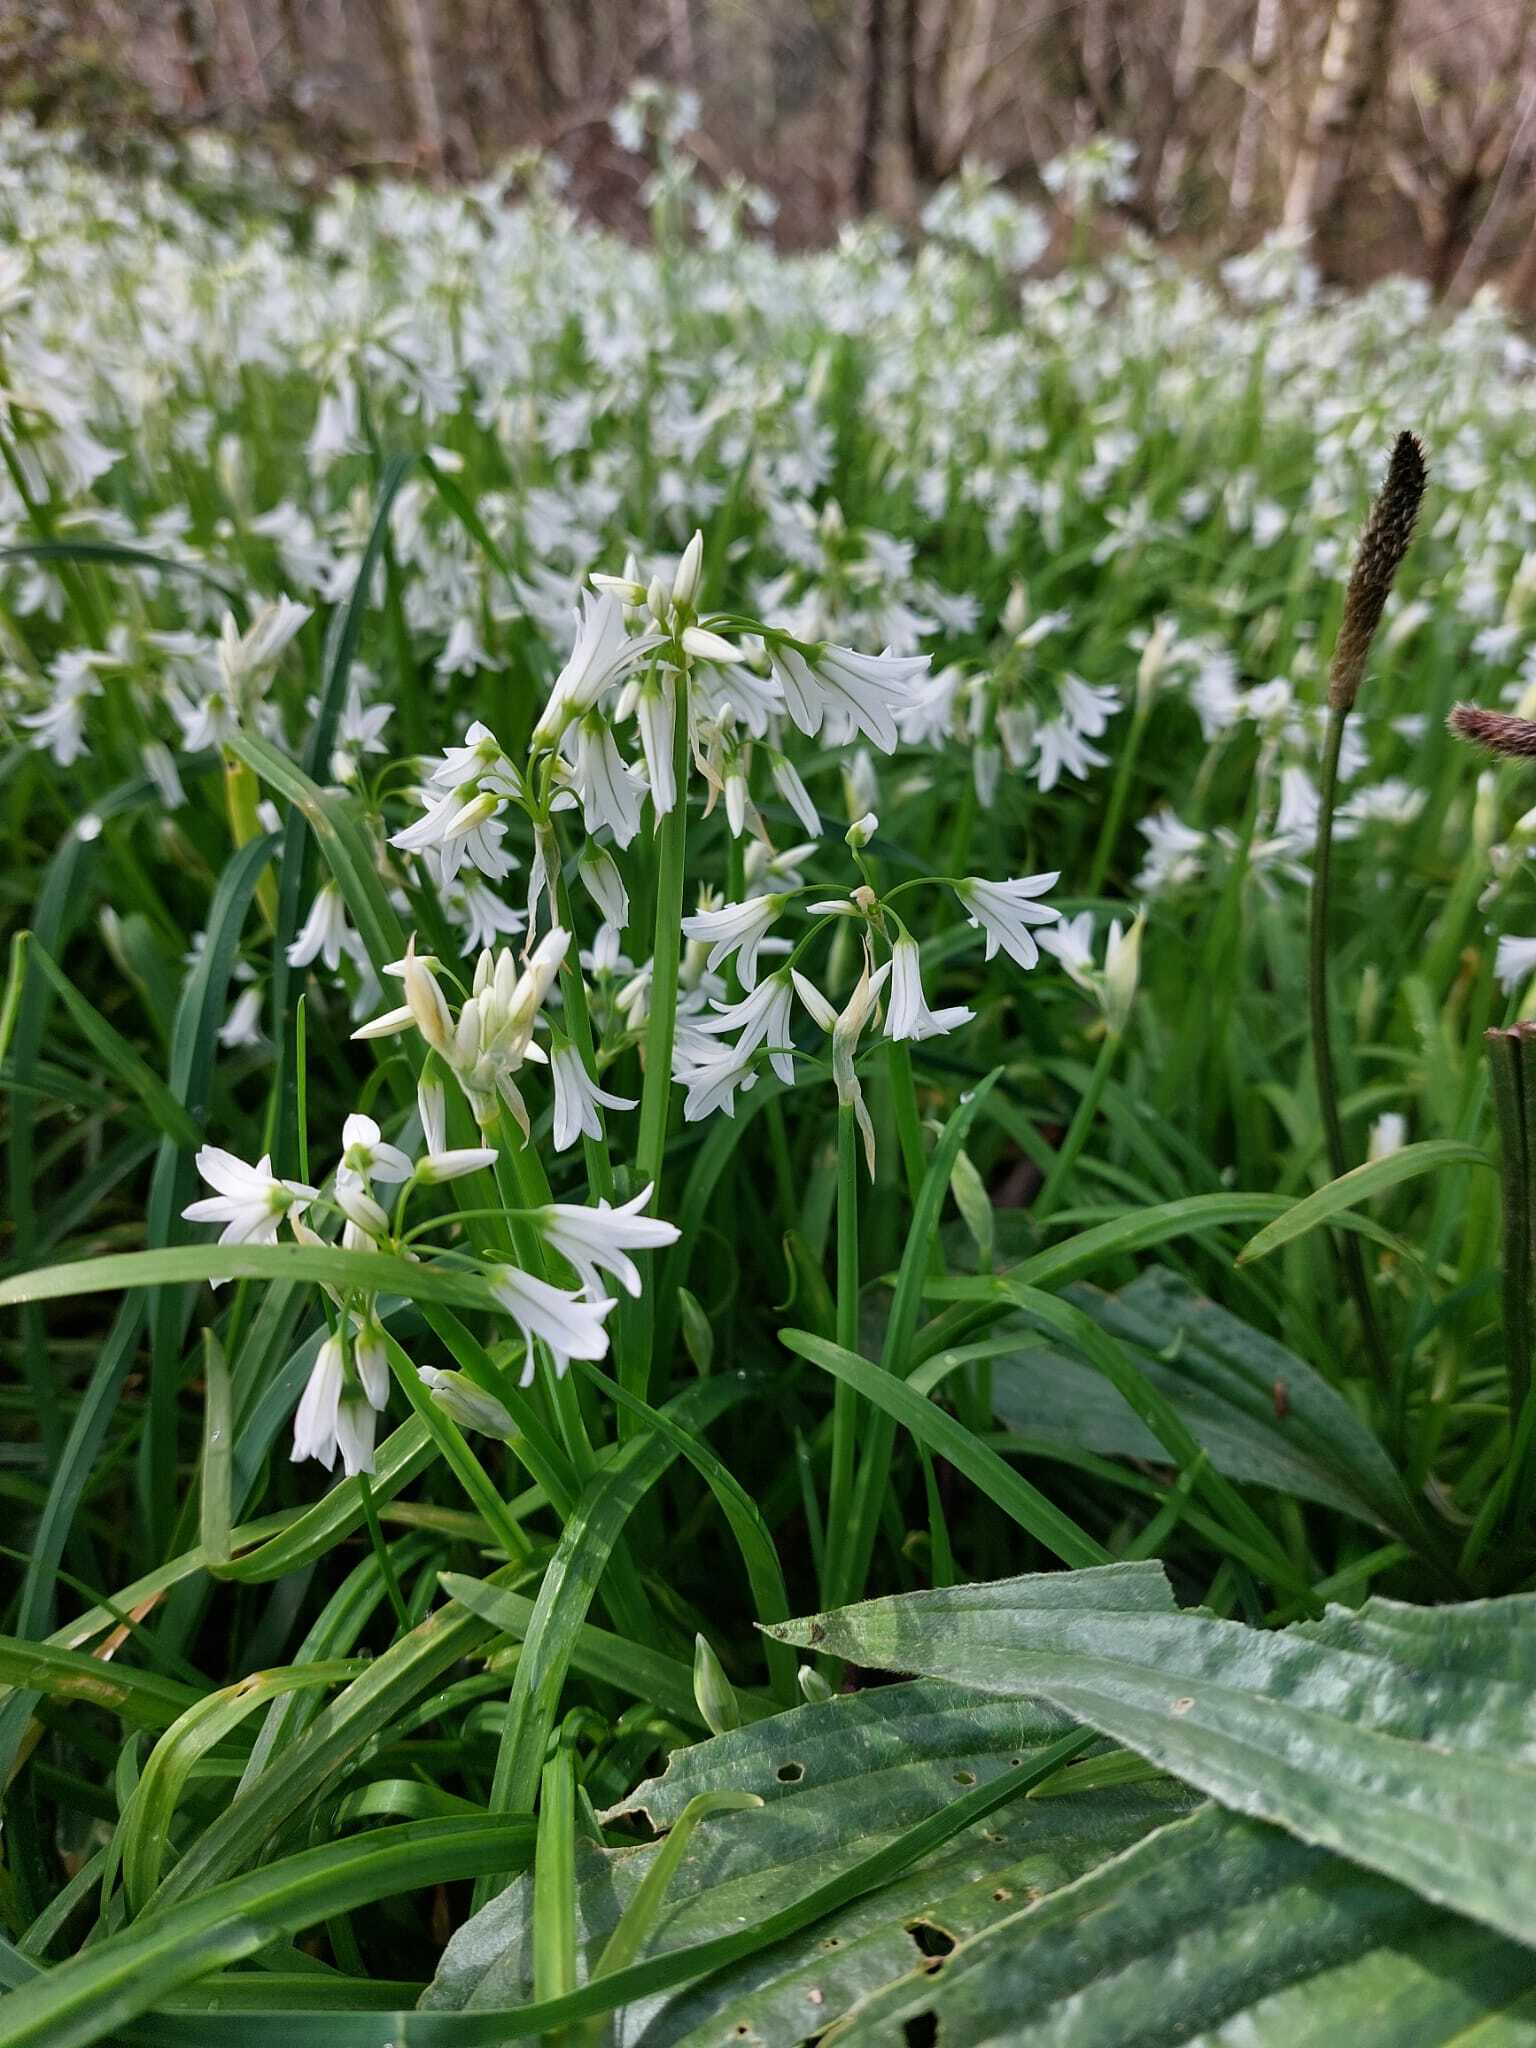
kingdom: Plantae
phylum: Tracheophyta
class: Liliopsida
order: Asparagales
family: Amaryllidaceae
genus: Allium
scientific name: Allium triquetrum
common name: Three-cornered garlic
